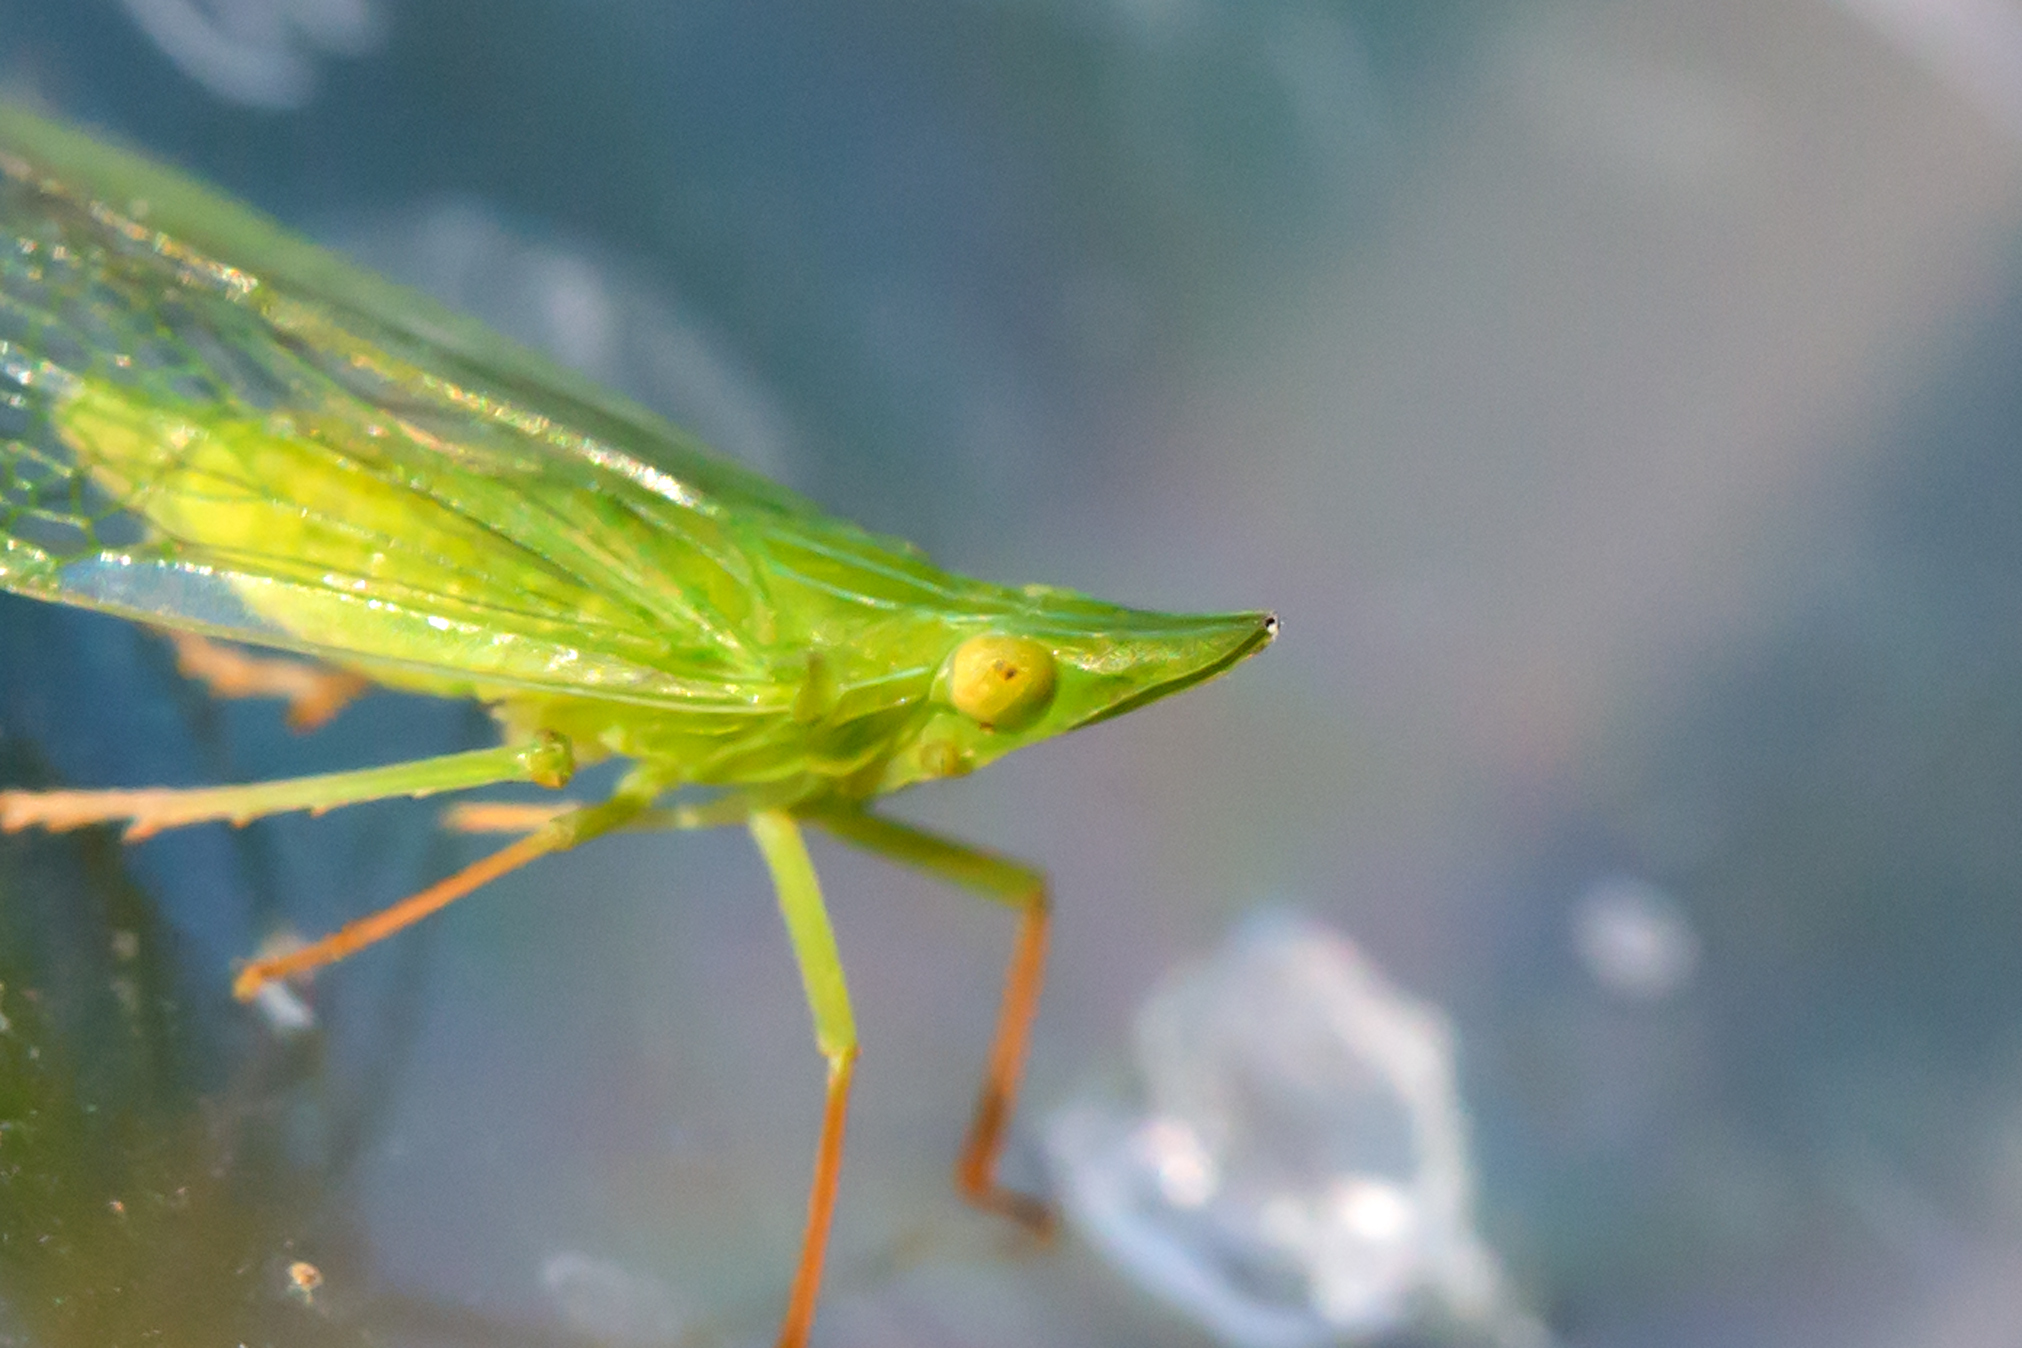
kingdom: Animalia
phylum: Arthropoda
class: Insecta
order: Hemiptera
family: Dictyopharidae
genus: Rhynchomitra
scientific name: Rhynchomitra microrhina
